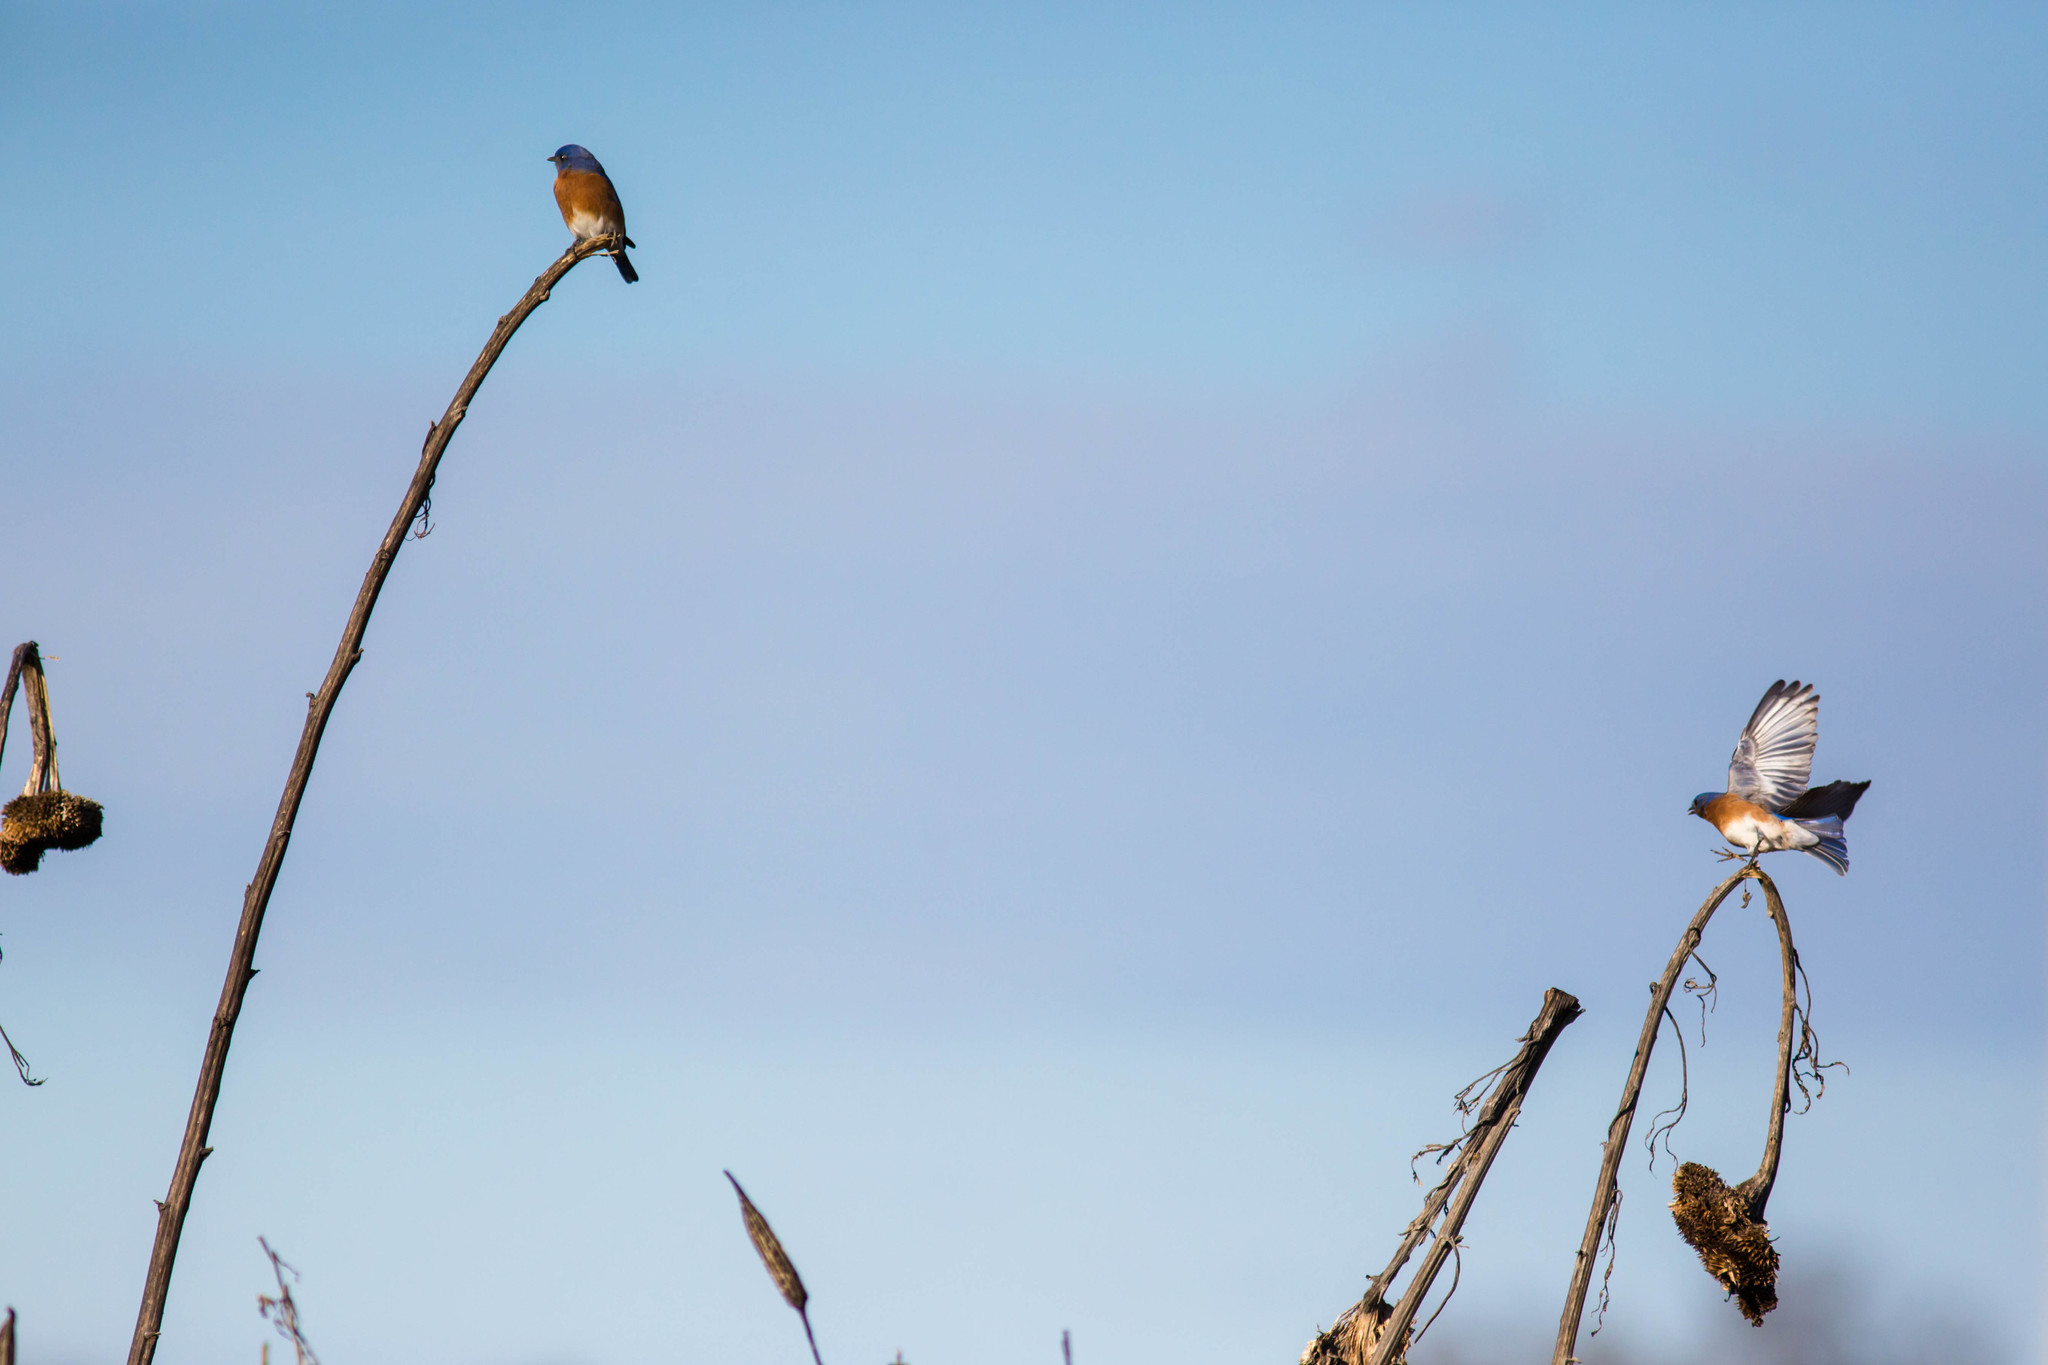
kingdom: Animalia
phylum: Chordata
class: Aves
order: Passeriformes
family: Turdidae
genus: Sialia
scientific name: Sialia sialis
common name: Eastern bluebird
